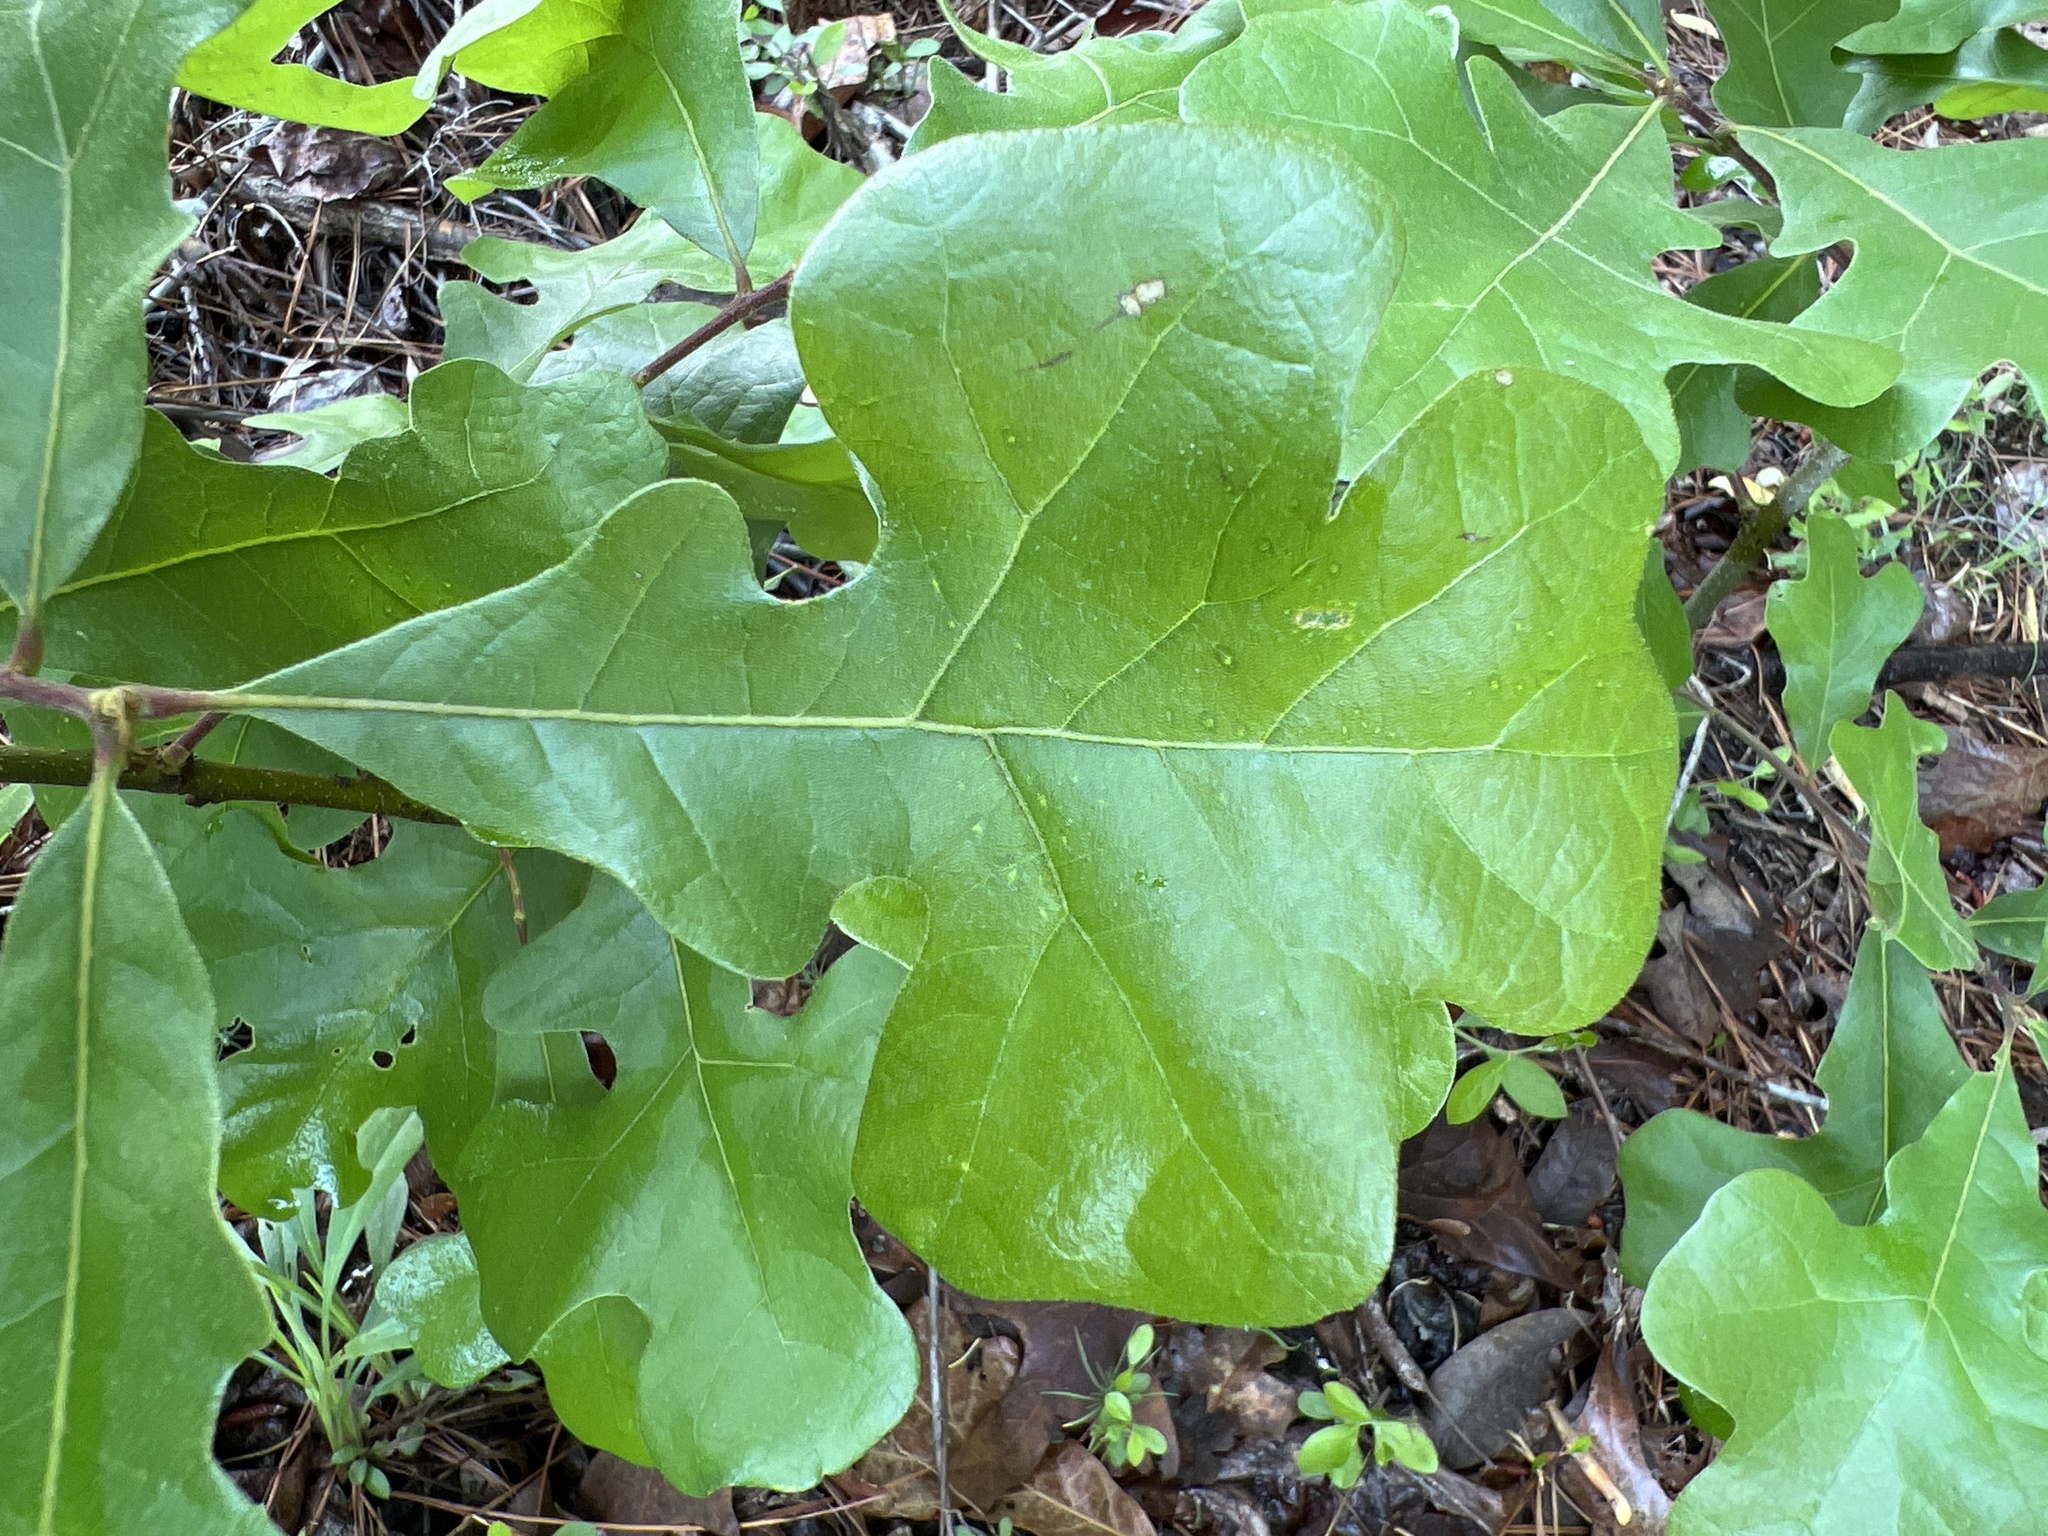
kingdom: Plantae
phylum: Tracheophyta
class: Magnoliopsida
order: Fagales
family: Fagaceae
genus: Quercus
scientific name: Quercus stellata
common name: Post oak
